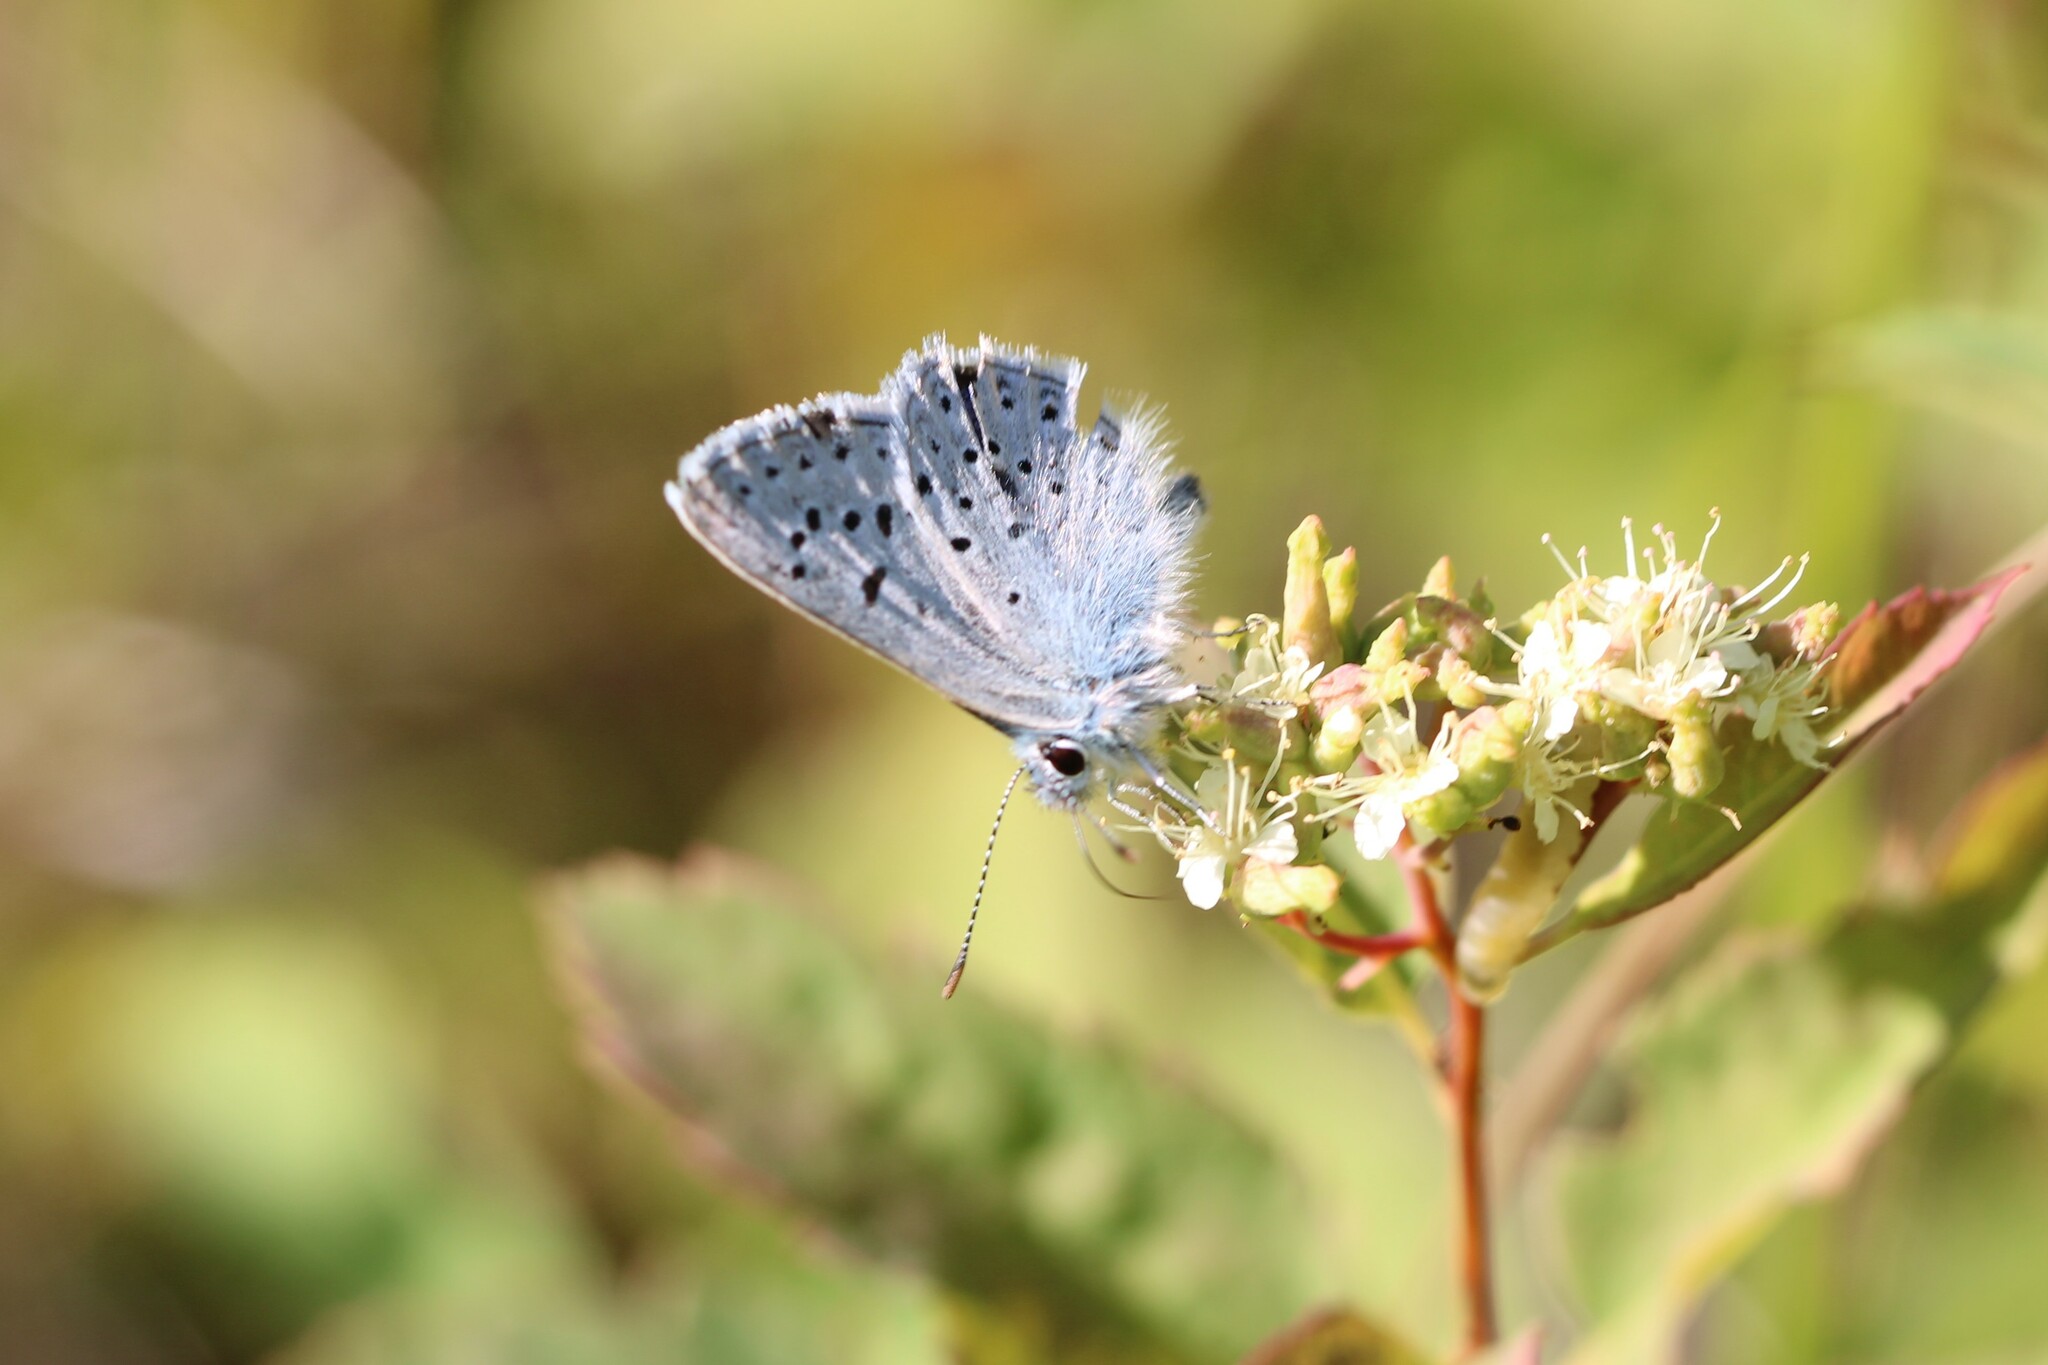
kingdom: Animalia
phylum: Arthropoda
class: Insecta
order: Lepidoptera
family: Lycaenidae
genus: Icaricia
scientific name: Icaricia saepiolus
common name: Greenish blue
